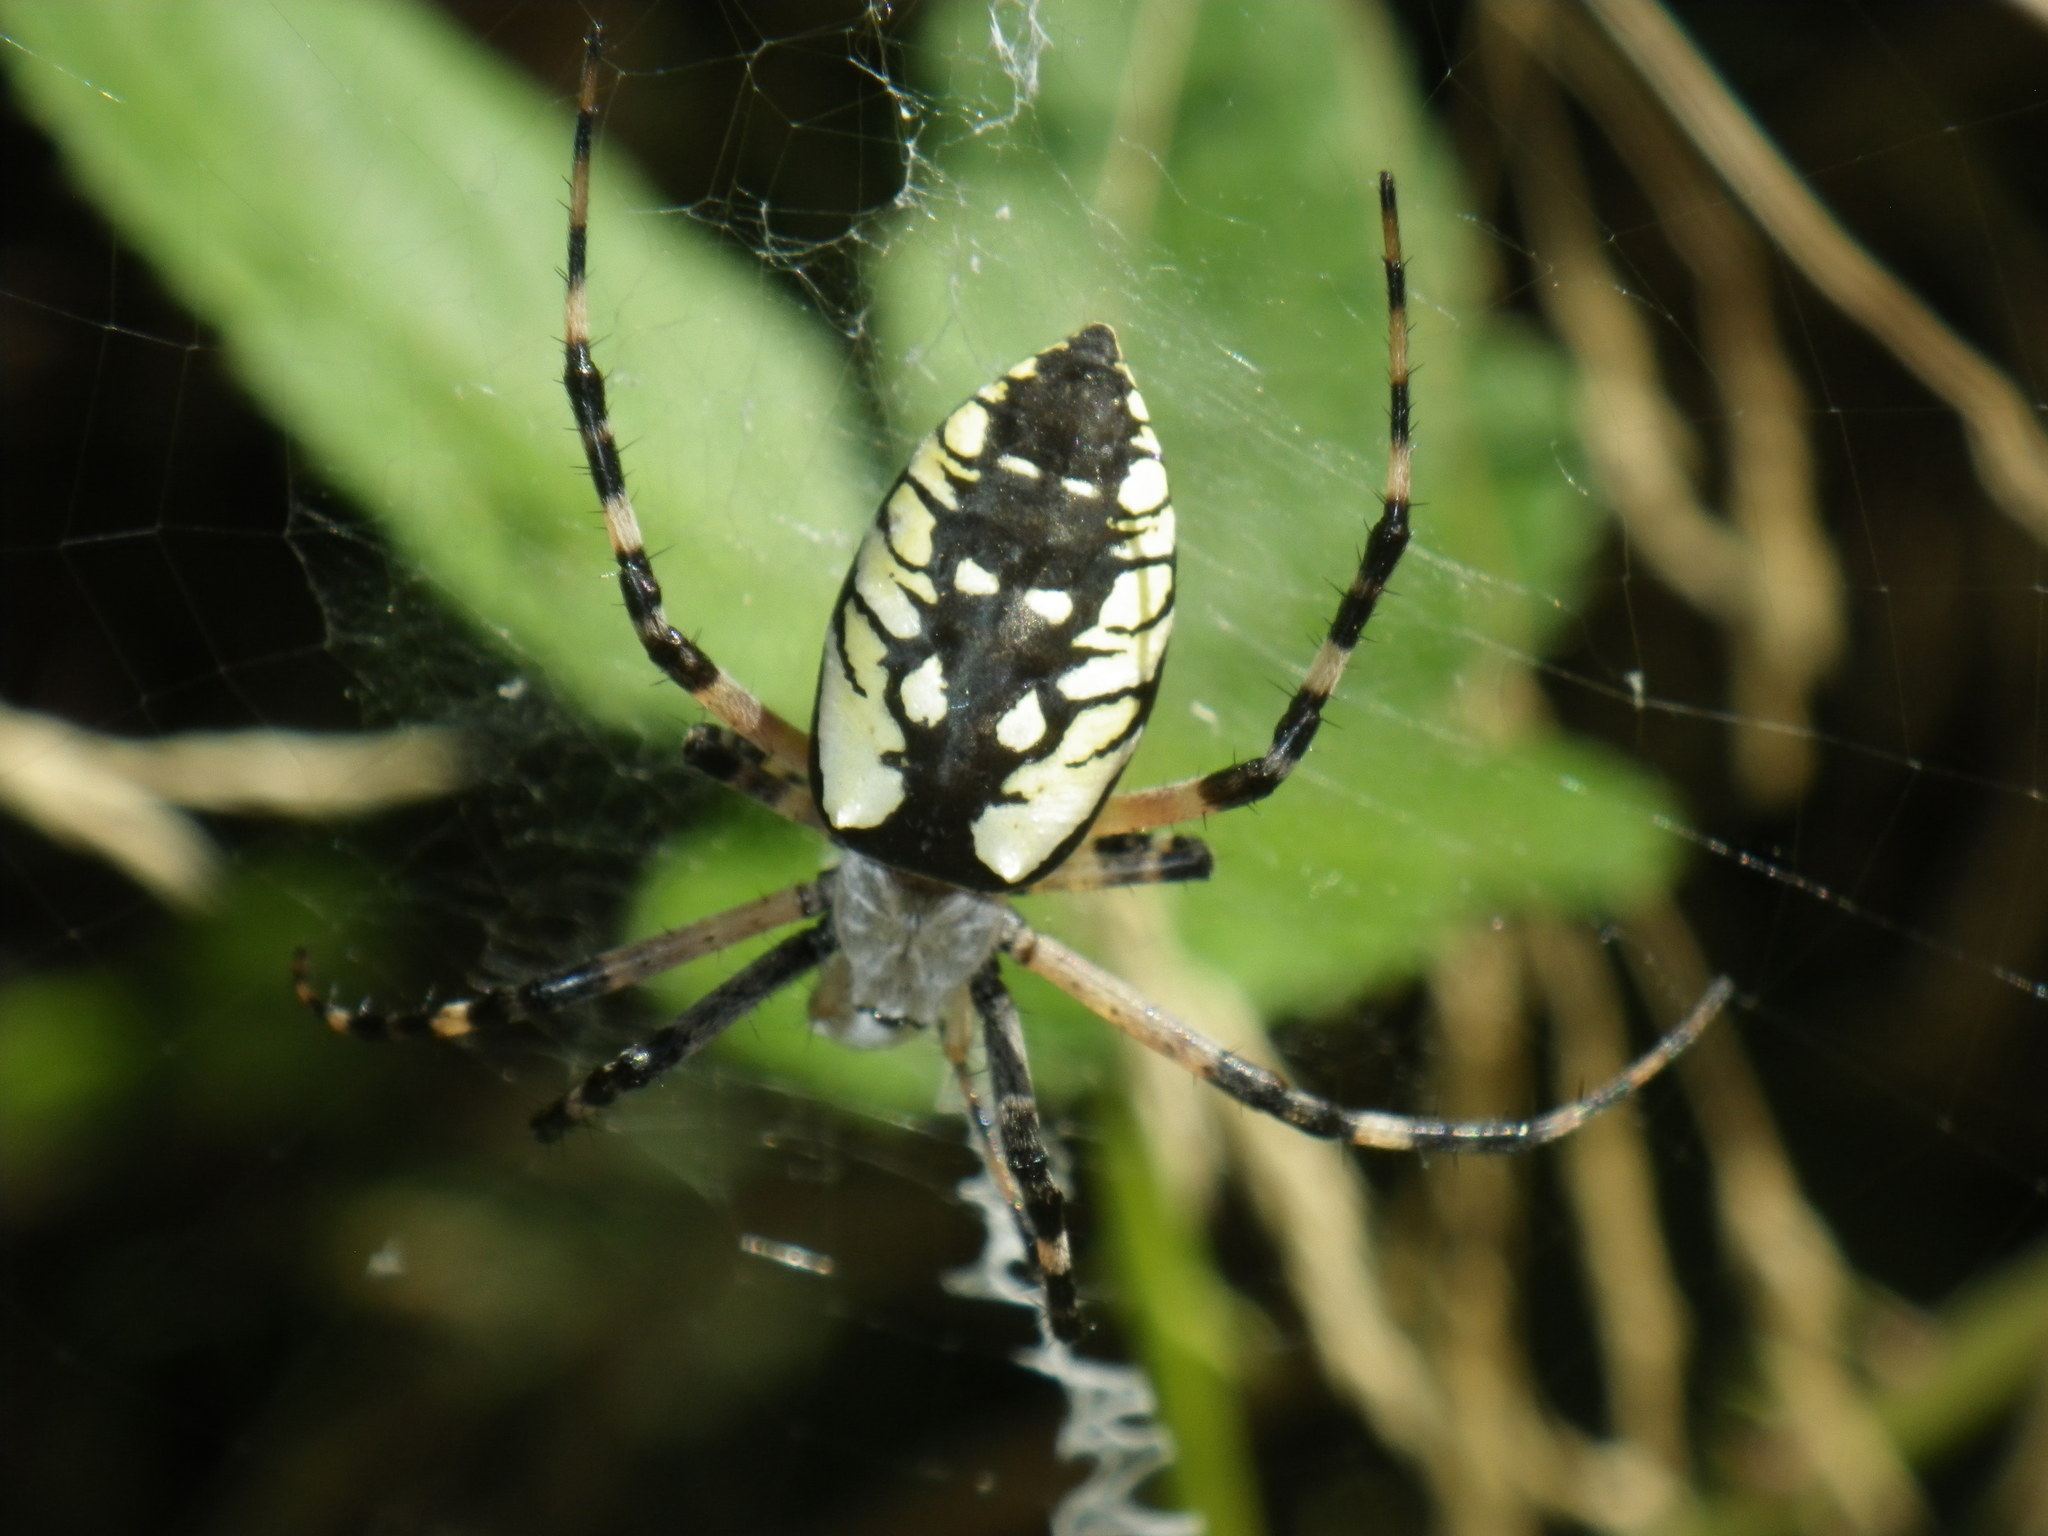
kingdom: Animalia
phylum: Arthropoda
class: Arachnida
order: Araneae
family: Araneidae
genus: Argiope
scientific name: Argiope aurantia
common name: Orb weavers
